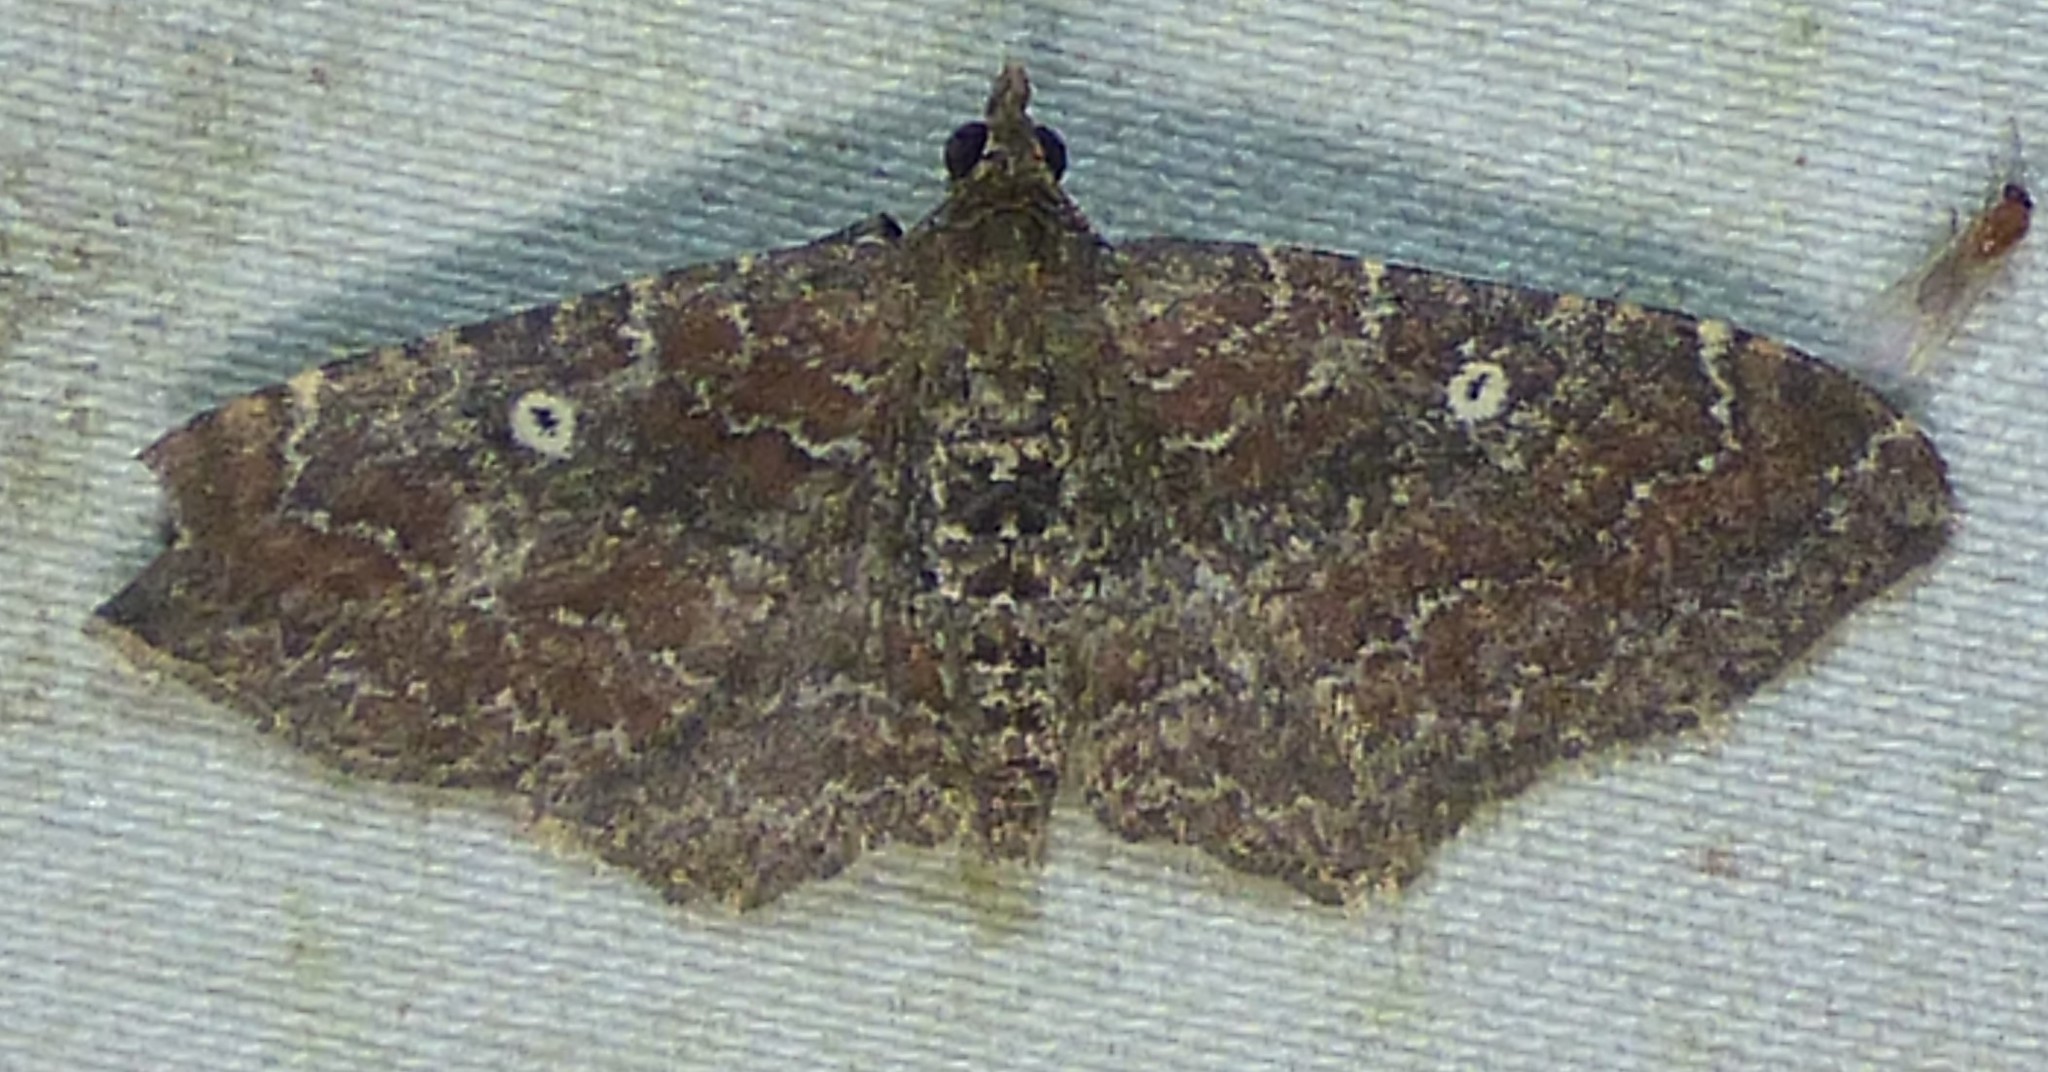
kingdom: Animalia
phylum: Arthropoda
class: Insecta
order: Lepidoptera
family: Geometridae
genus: Orthonama
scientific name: Orthonama obstipata
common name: The gem
